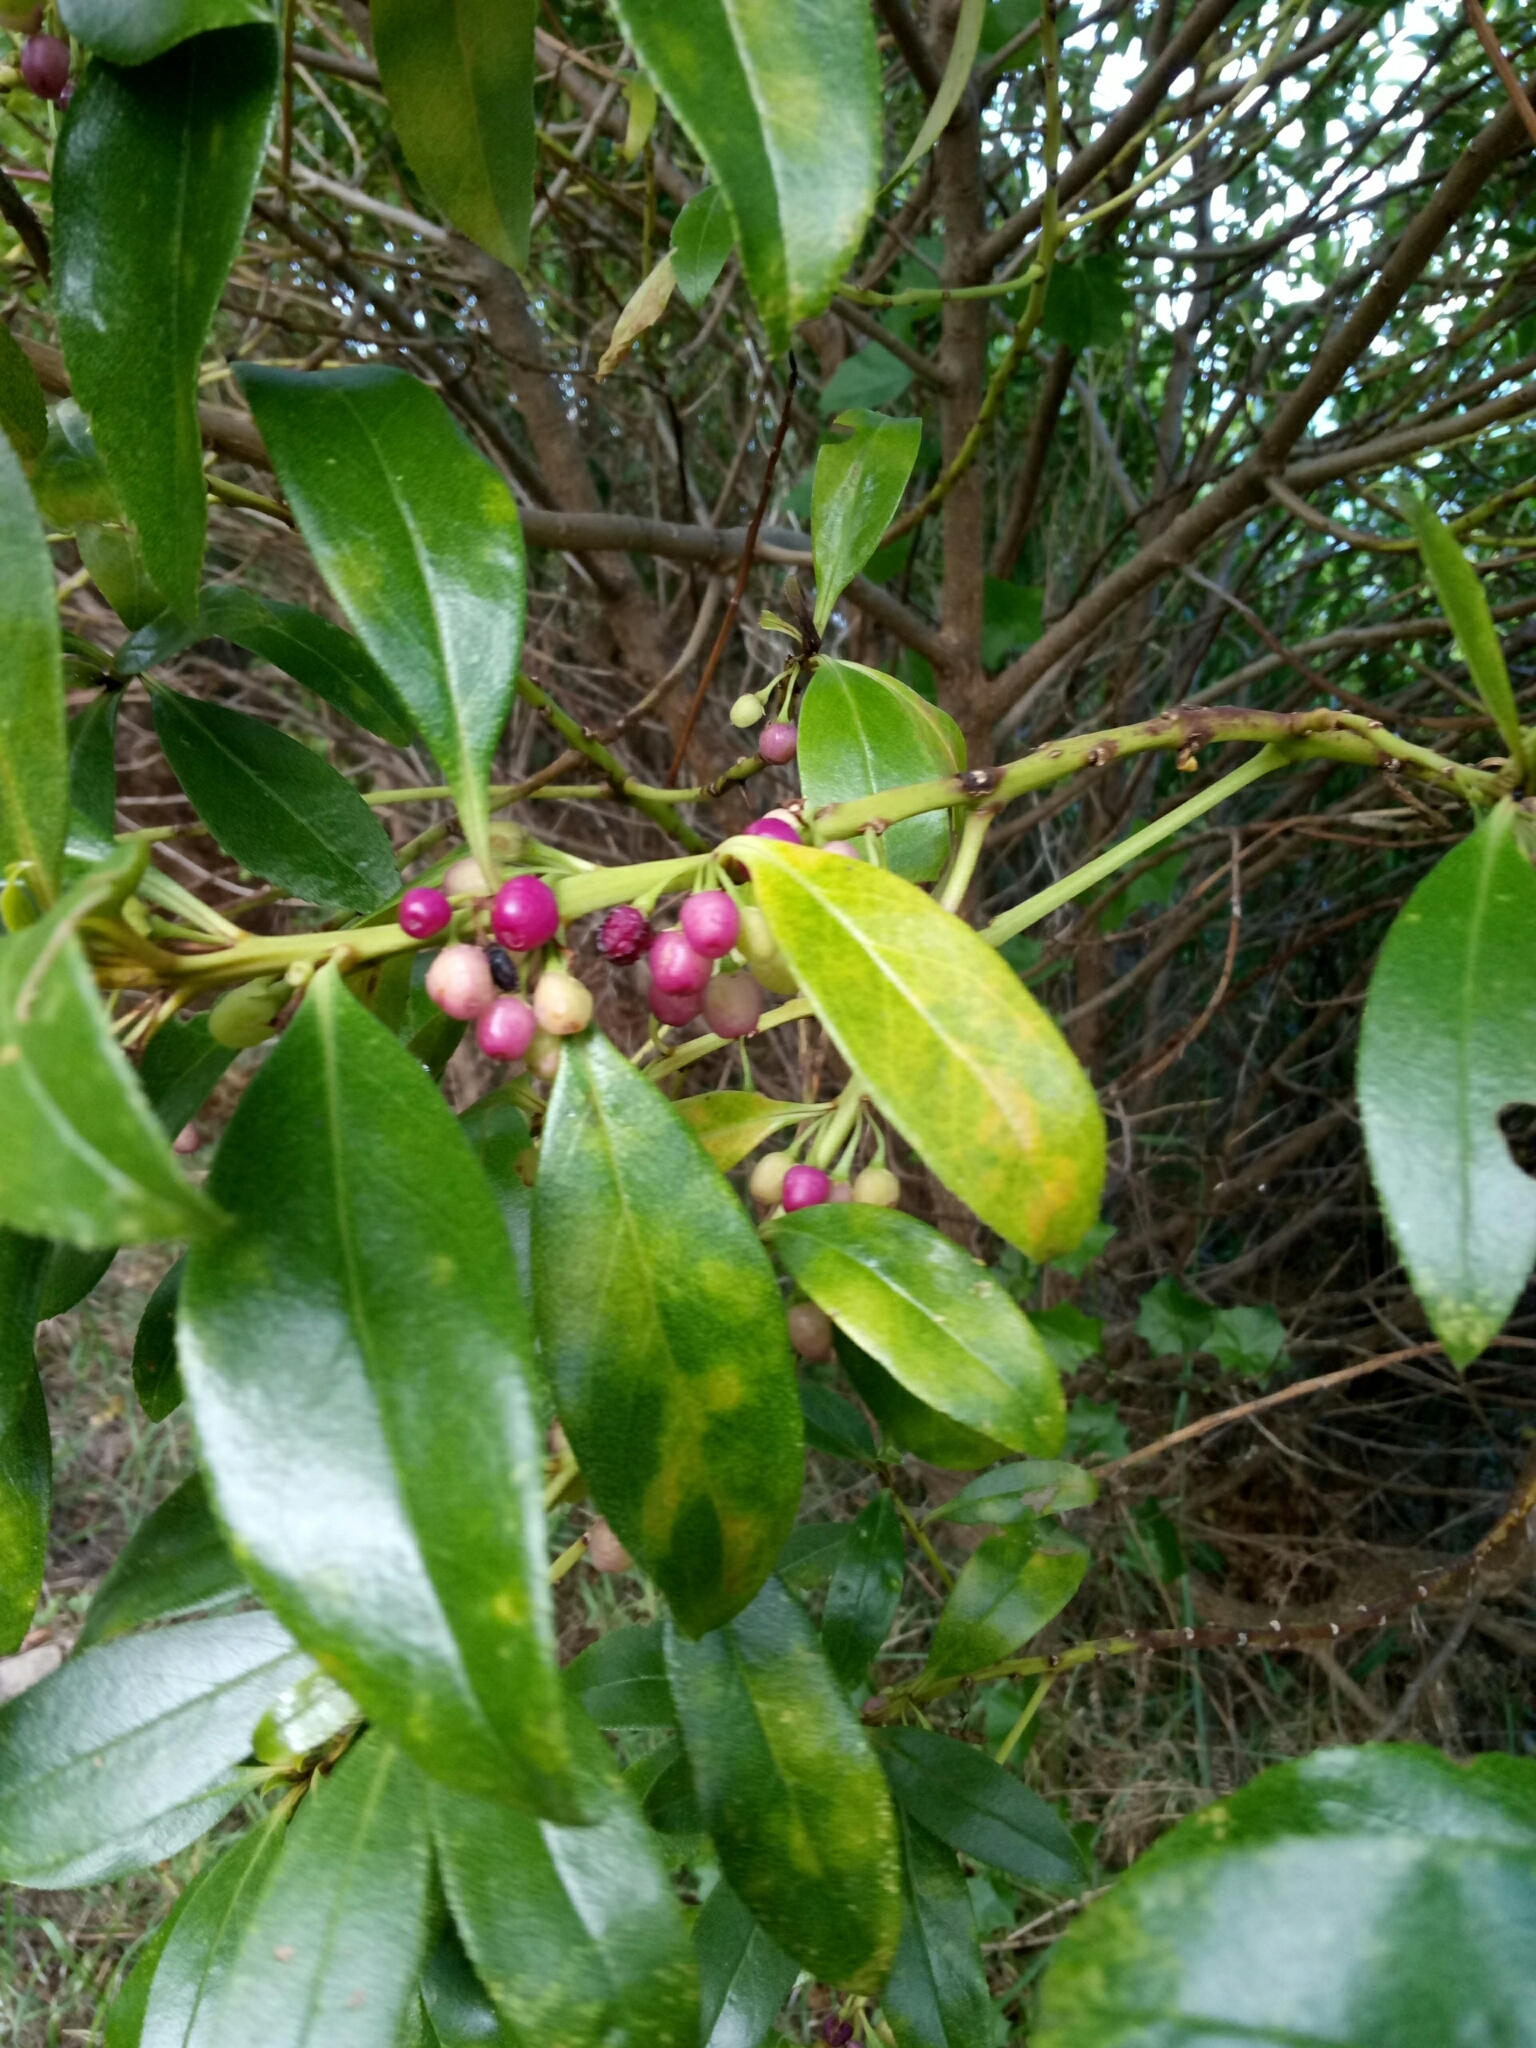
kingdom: Plantae
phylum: Tracheophyta
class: Magnoliopsida
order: Lamiales
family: Scrophulariaceae
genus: Myoporum
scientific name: Myoporum laetum
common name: Ngaio tree
